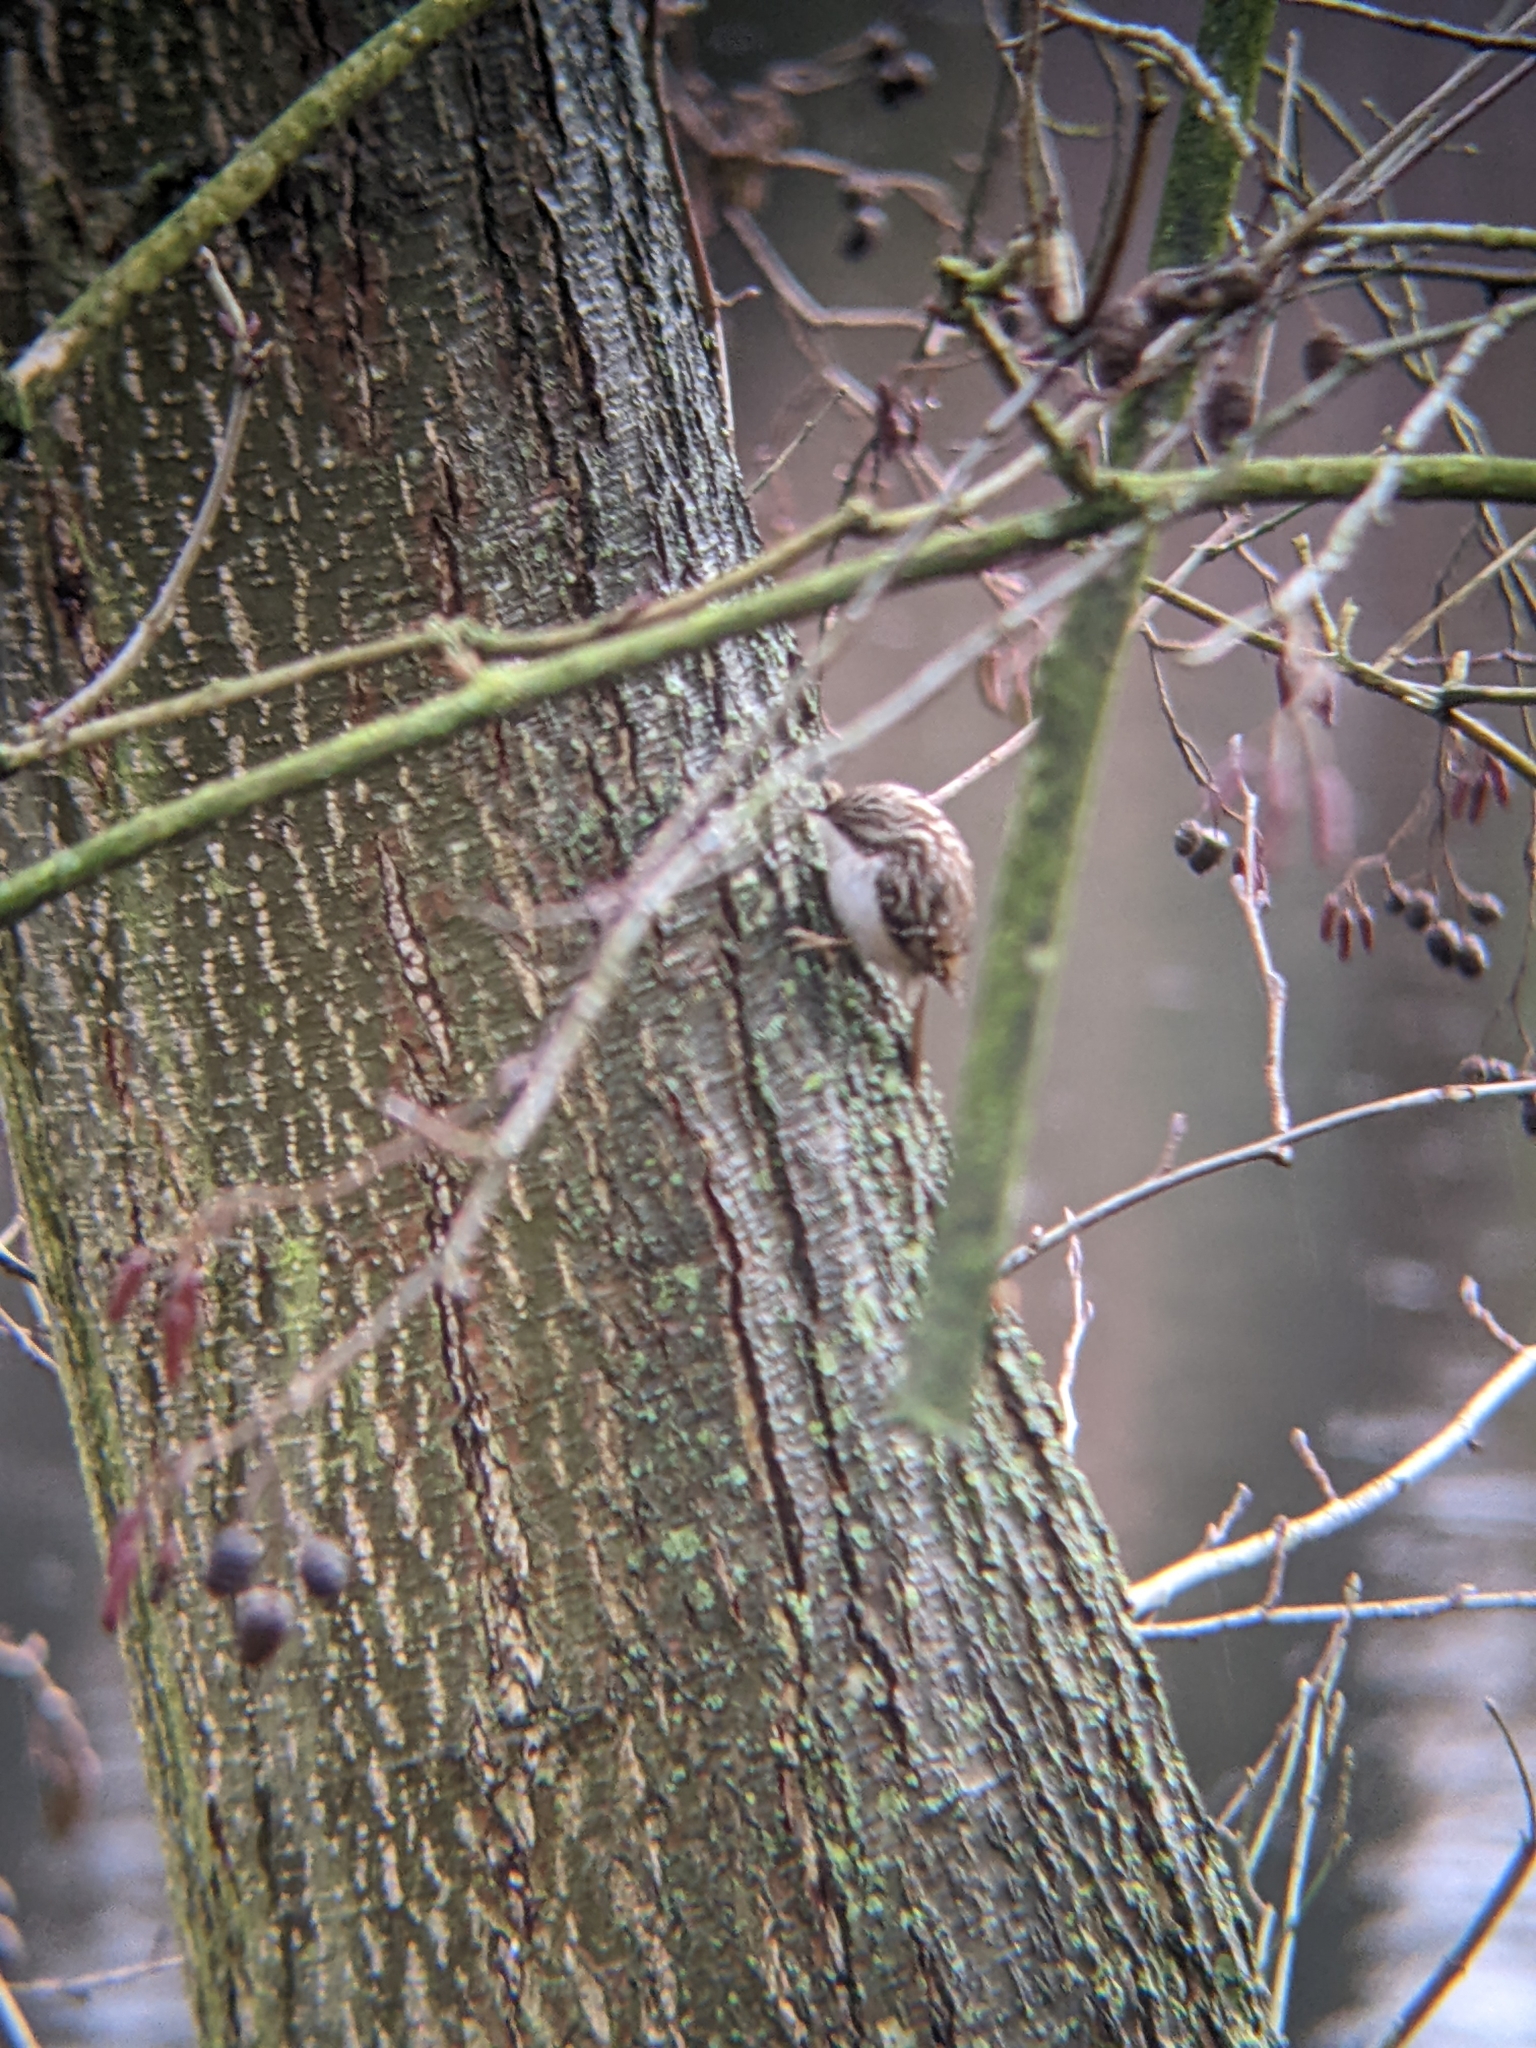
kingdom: Animalia
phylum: Chordata
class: Aves
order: Passeriformes
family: Certhiidae
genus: Certhia
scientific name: Certhia
